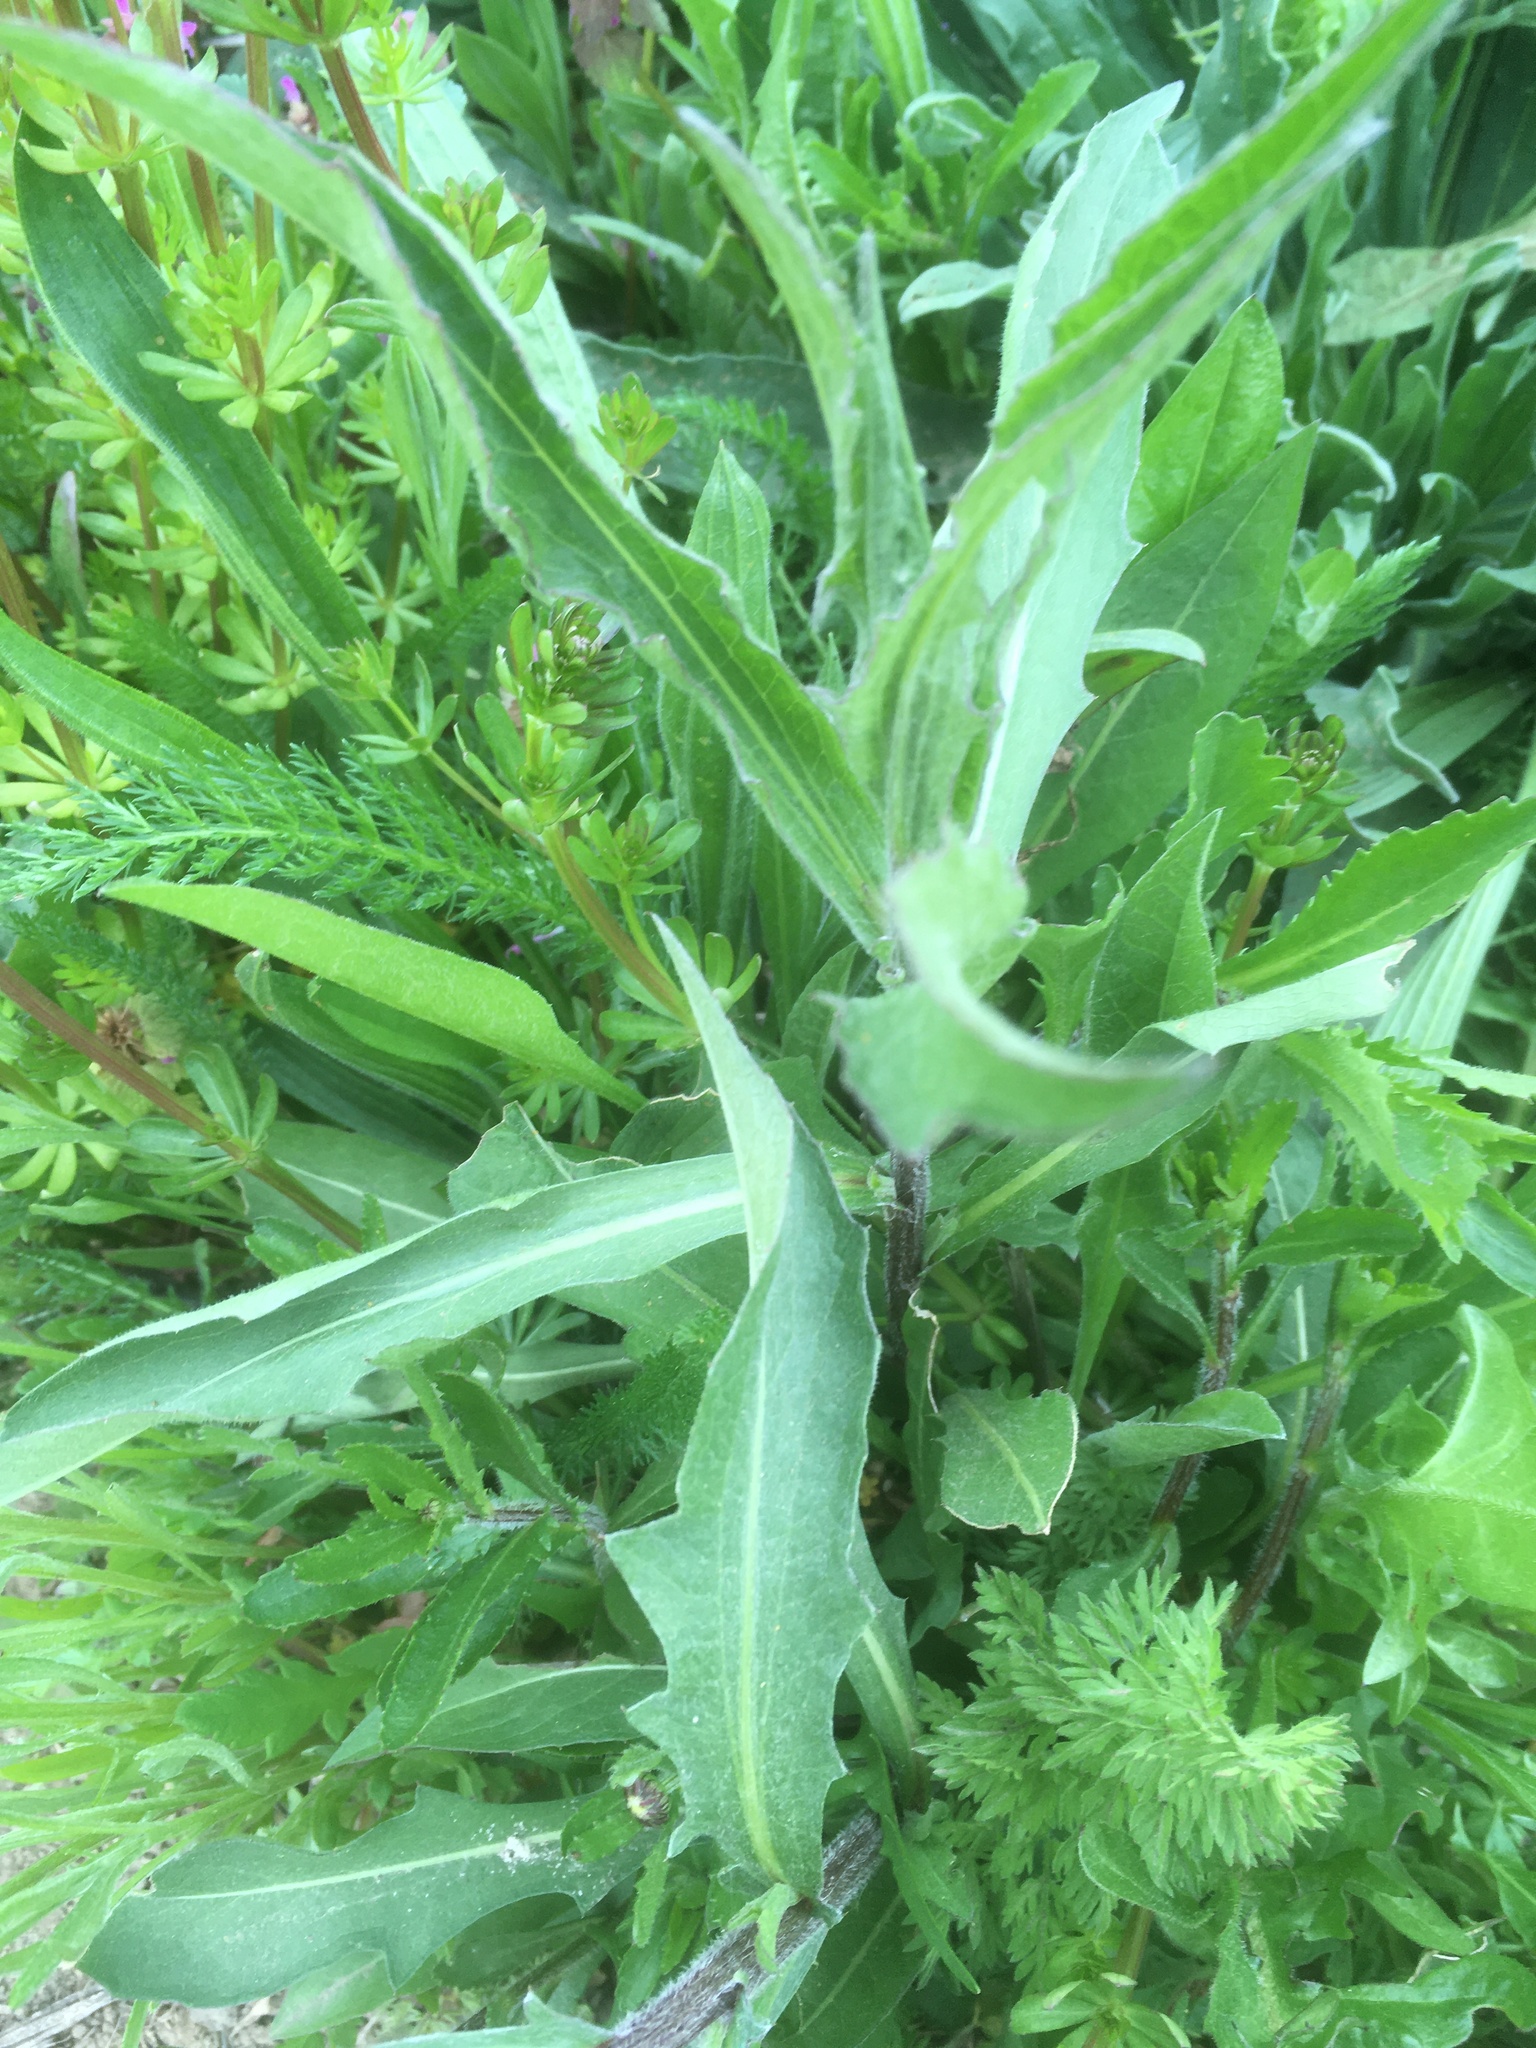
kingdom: Plantae
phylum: Tracheophyta
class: Magnoliopsida
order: Asterales
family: Asteraceae
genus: Cichorium
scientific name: Cichorium intybus
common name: Chicory
